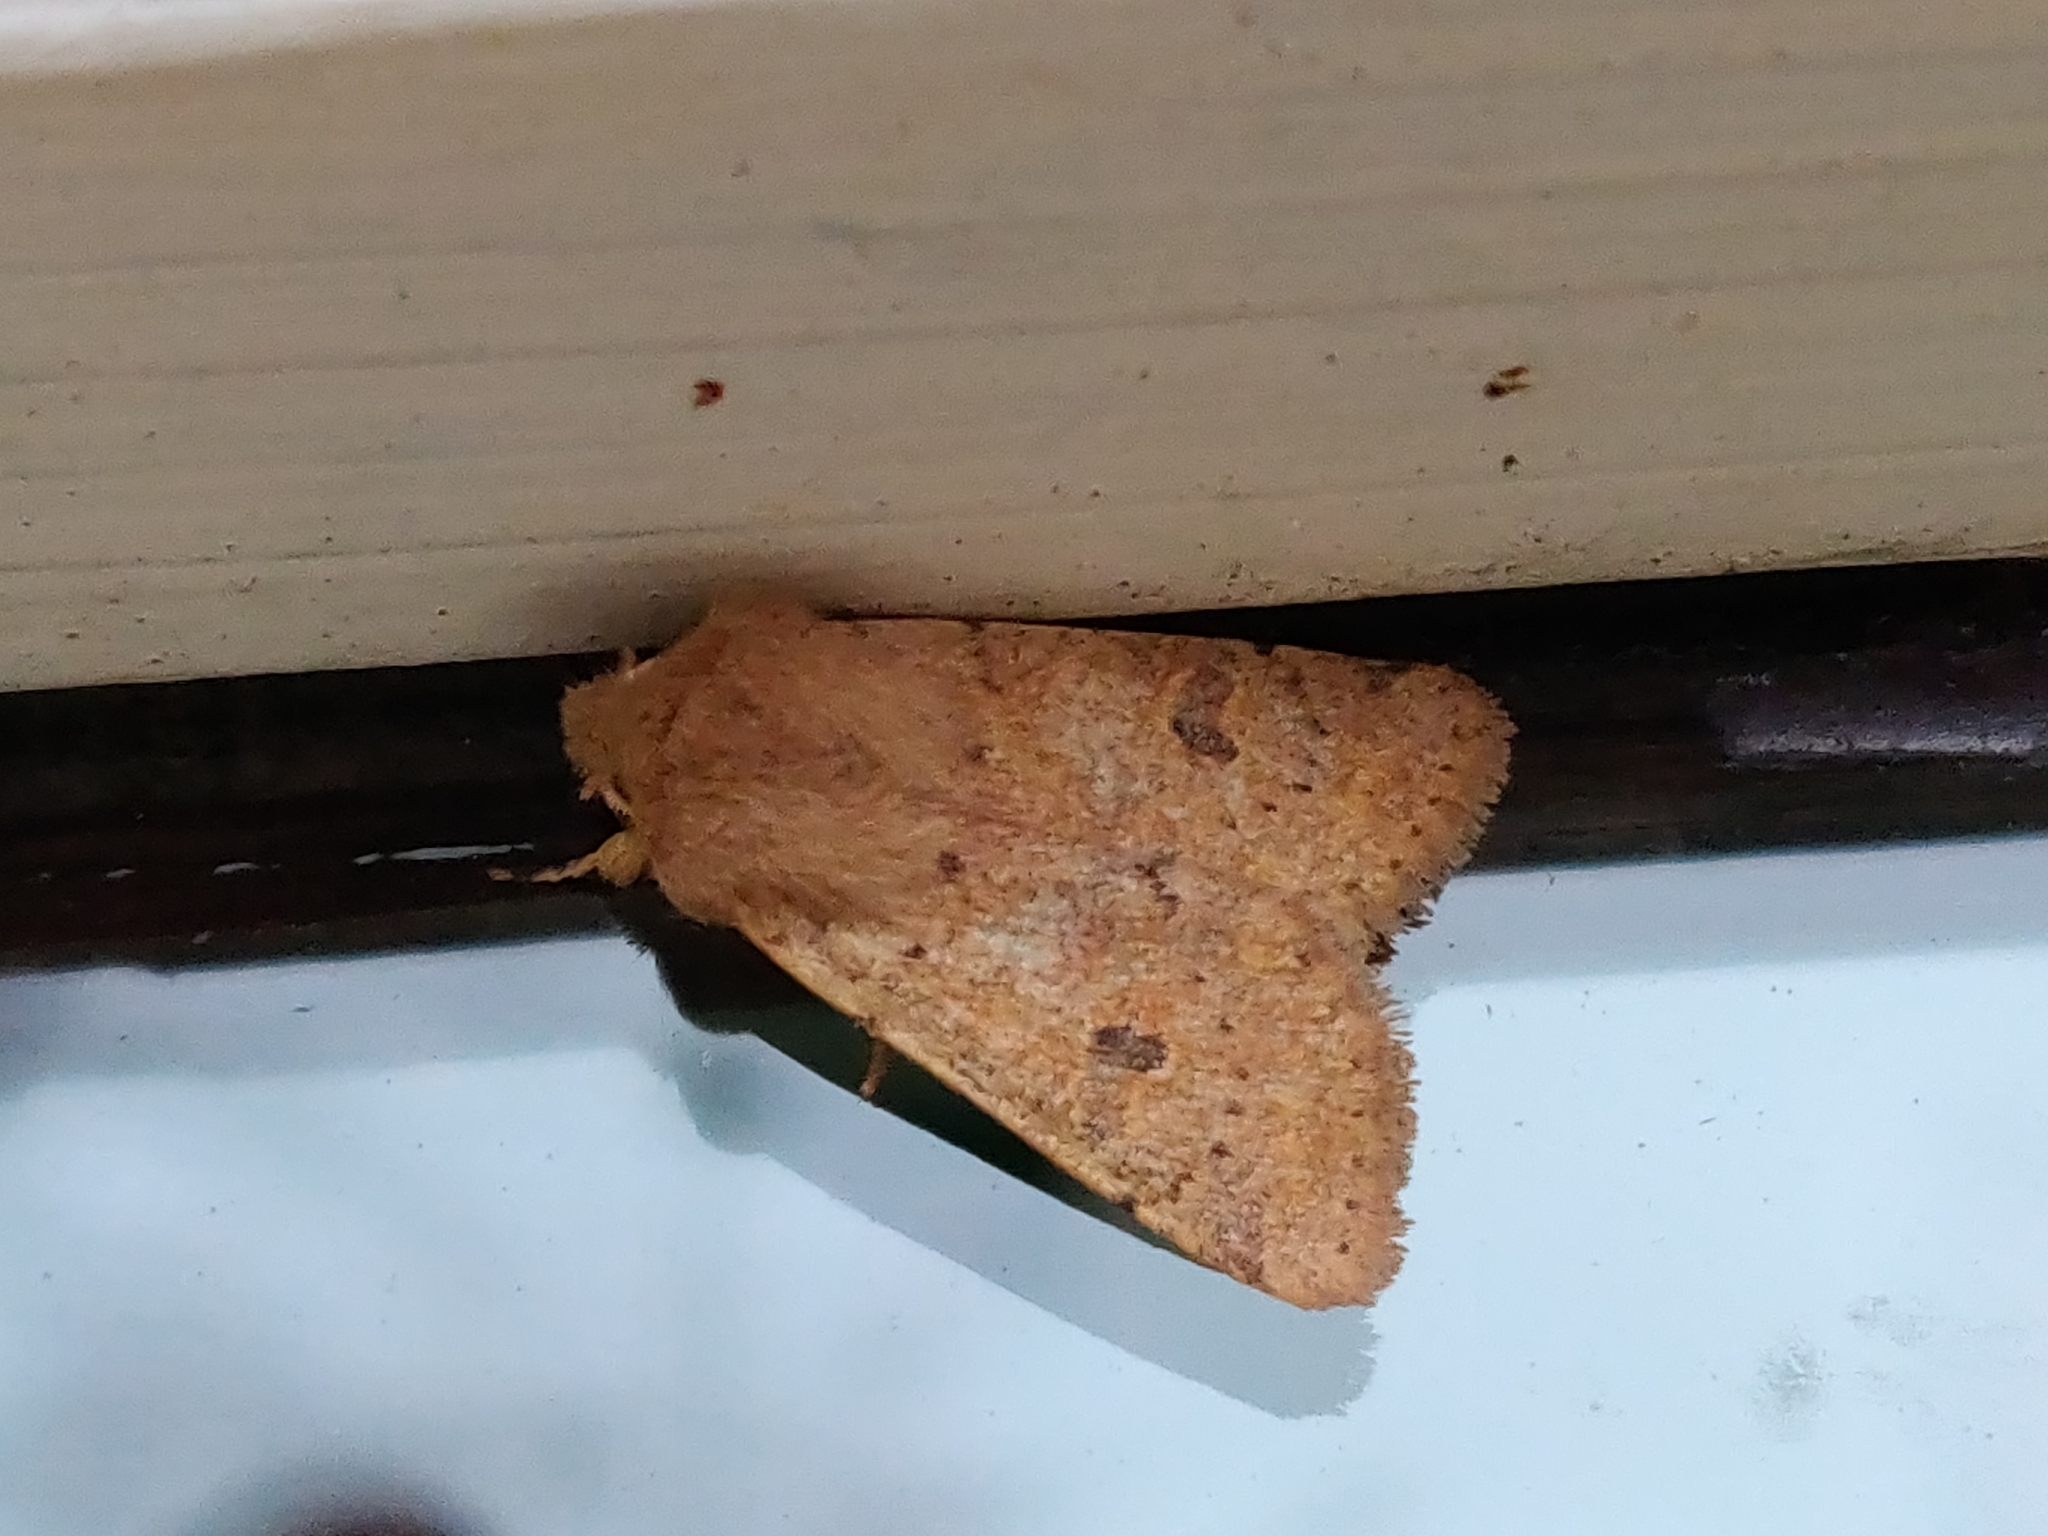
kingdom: Animalia
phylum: Arthropoda
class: Insecta
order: Lepidoptera
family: Noctuidae
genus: Orthosia
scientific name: Orthosia cruda
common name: Small quaker
